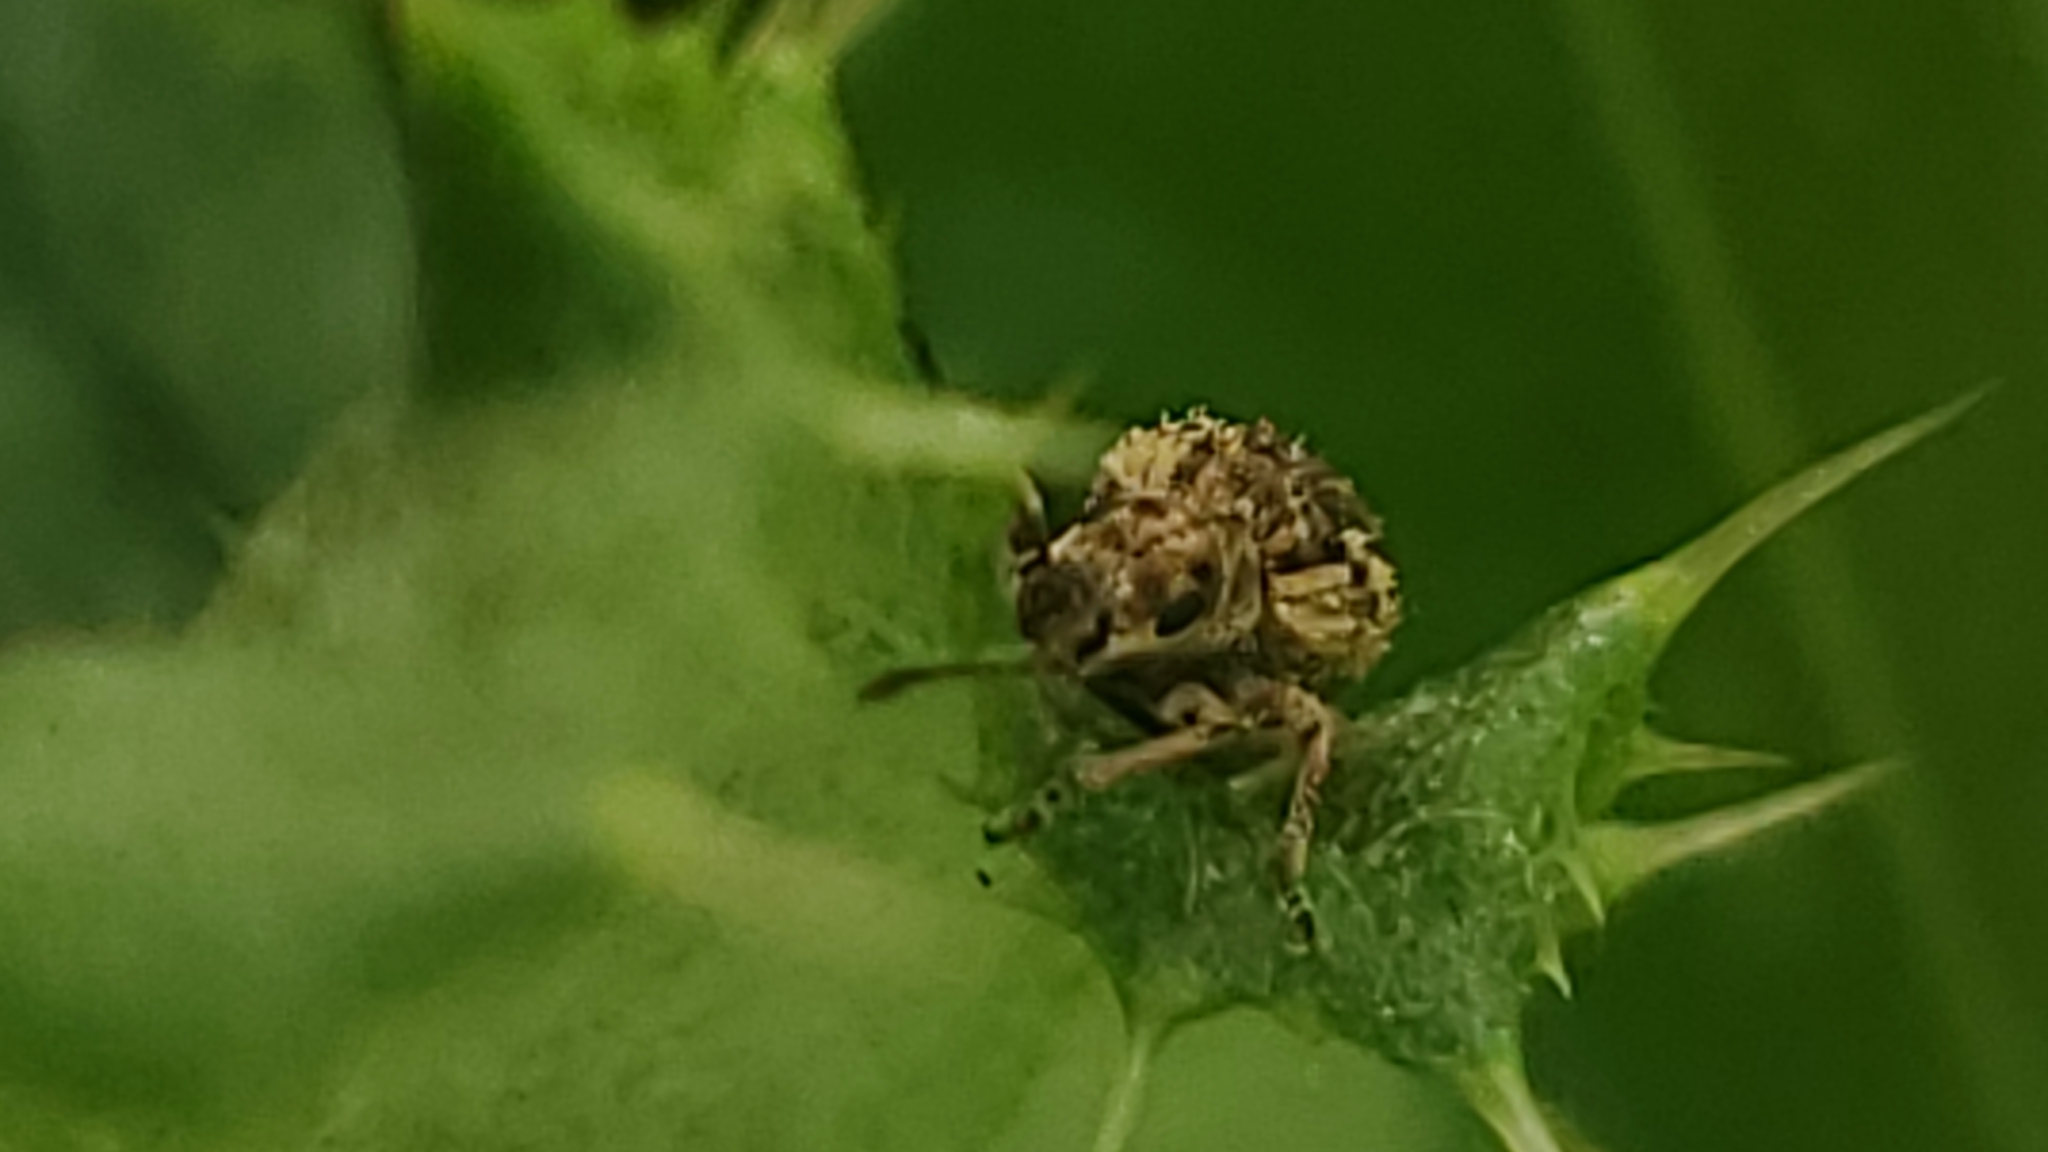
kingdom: Animalia
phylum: Arthropoda
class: Insecta
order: Coleoptera
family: Curculionidae
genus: Pseudoedophrys
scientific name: Pseudoedophrys hilleri
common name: Weevil
